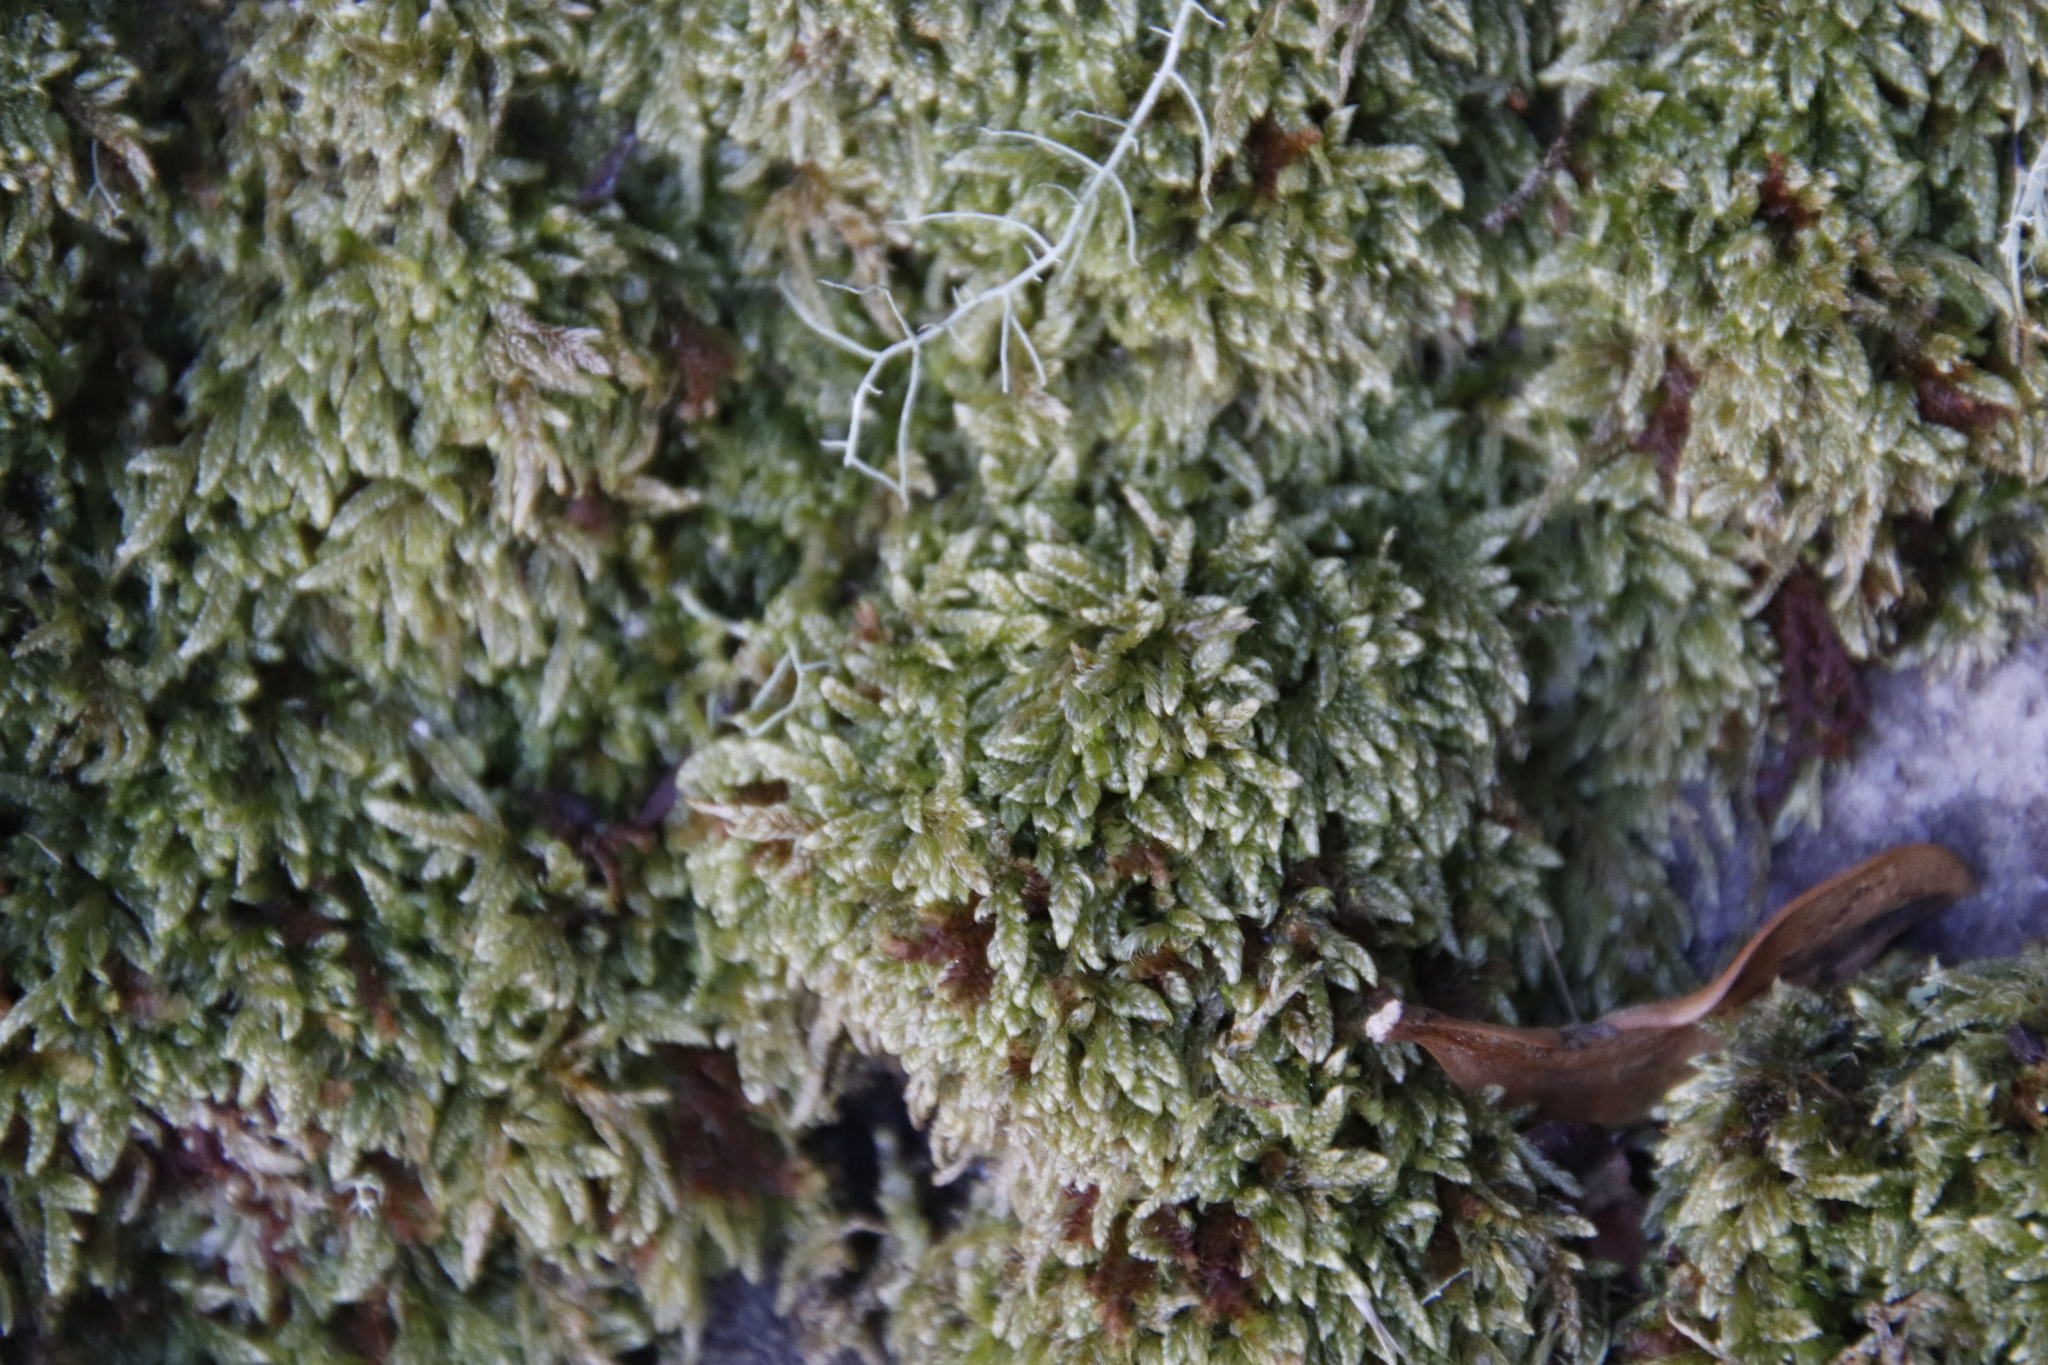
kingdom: Plantae
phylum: Bryophyta
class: Bryopsida
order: Hypnales
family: Hypnaceae
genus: Hypnum
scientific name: Hypnum cupressiforme
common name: Cypress-leaved plait-moss
